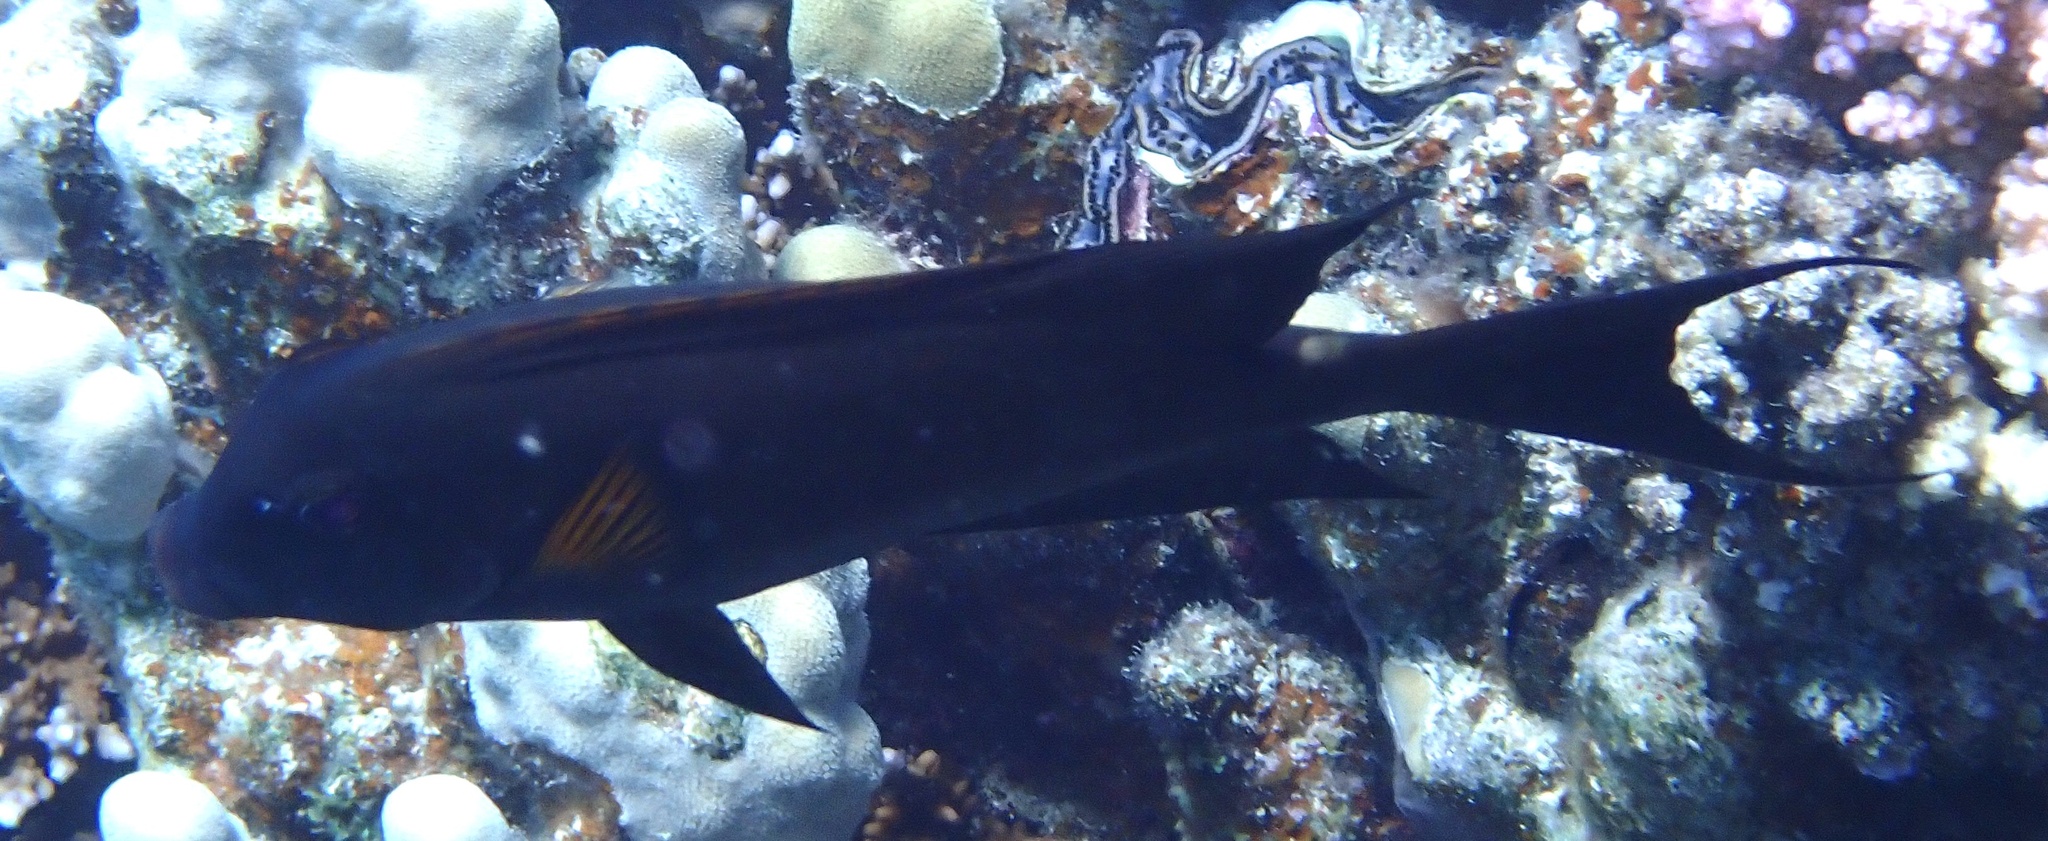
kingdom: Animalia
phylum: Chordata
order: Perciformes
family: Acanthuridae
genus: Ctenochaetus
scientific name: Ctenochaetus striatus
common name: Bristle-toothed surgeonfish
